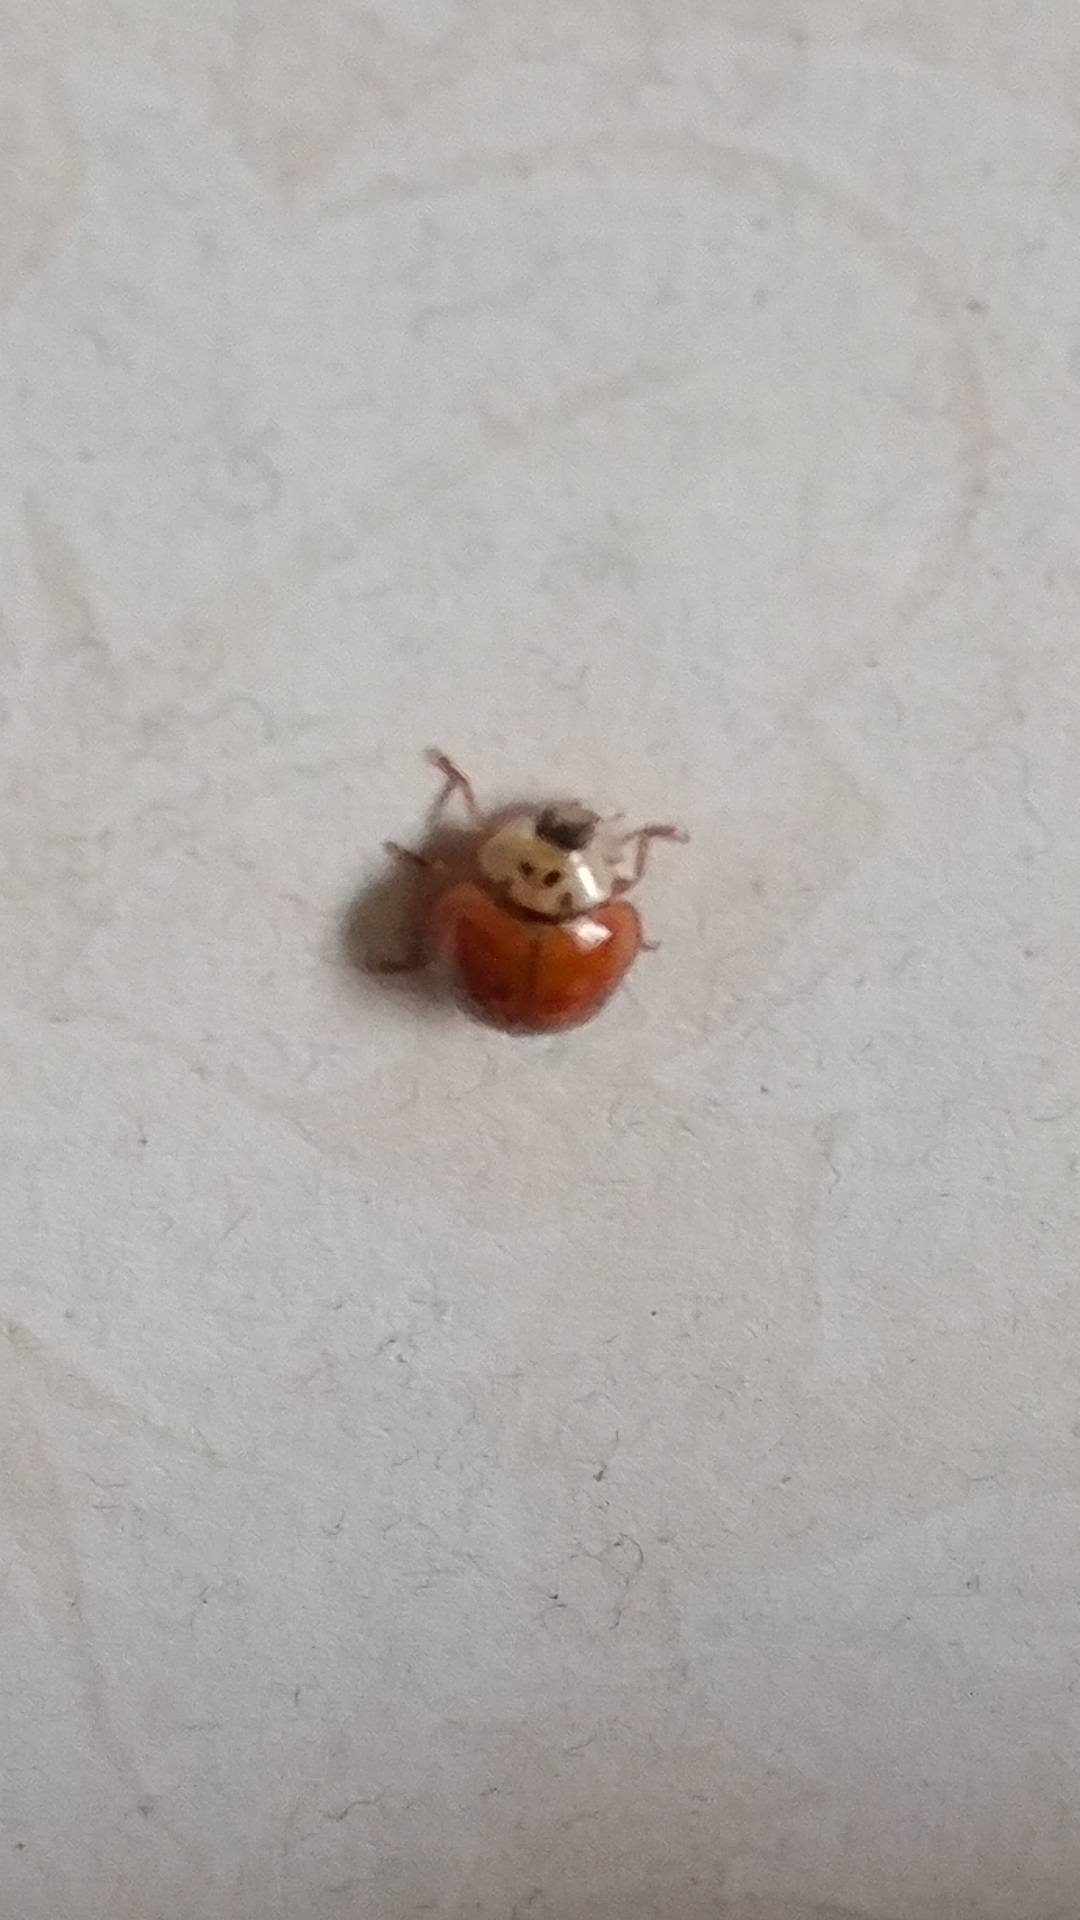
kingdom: Animalia
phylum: Arthropoda
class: Insecta
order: Coleoptera
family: Coccinellidae
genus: Harmonia
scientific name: Harmonia axyridis
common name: Harlequin ladybird
